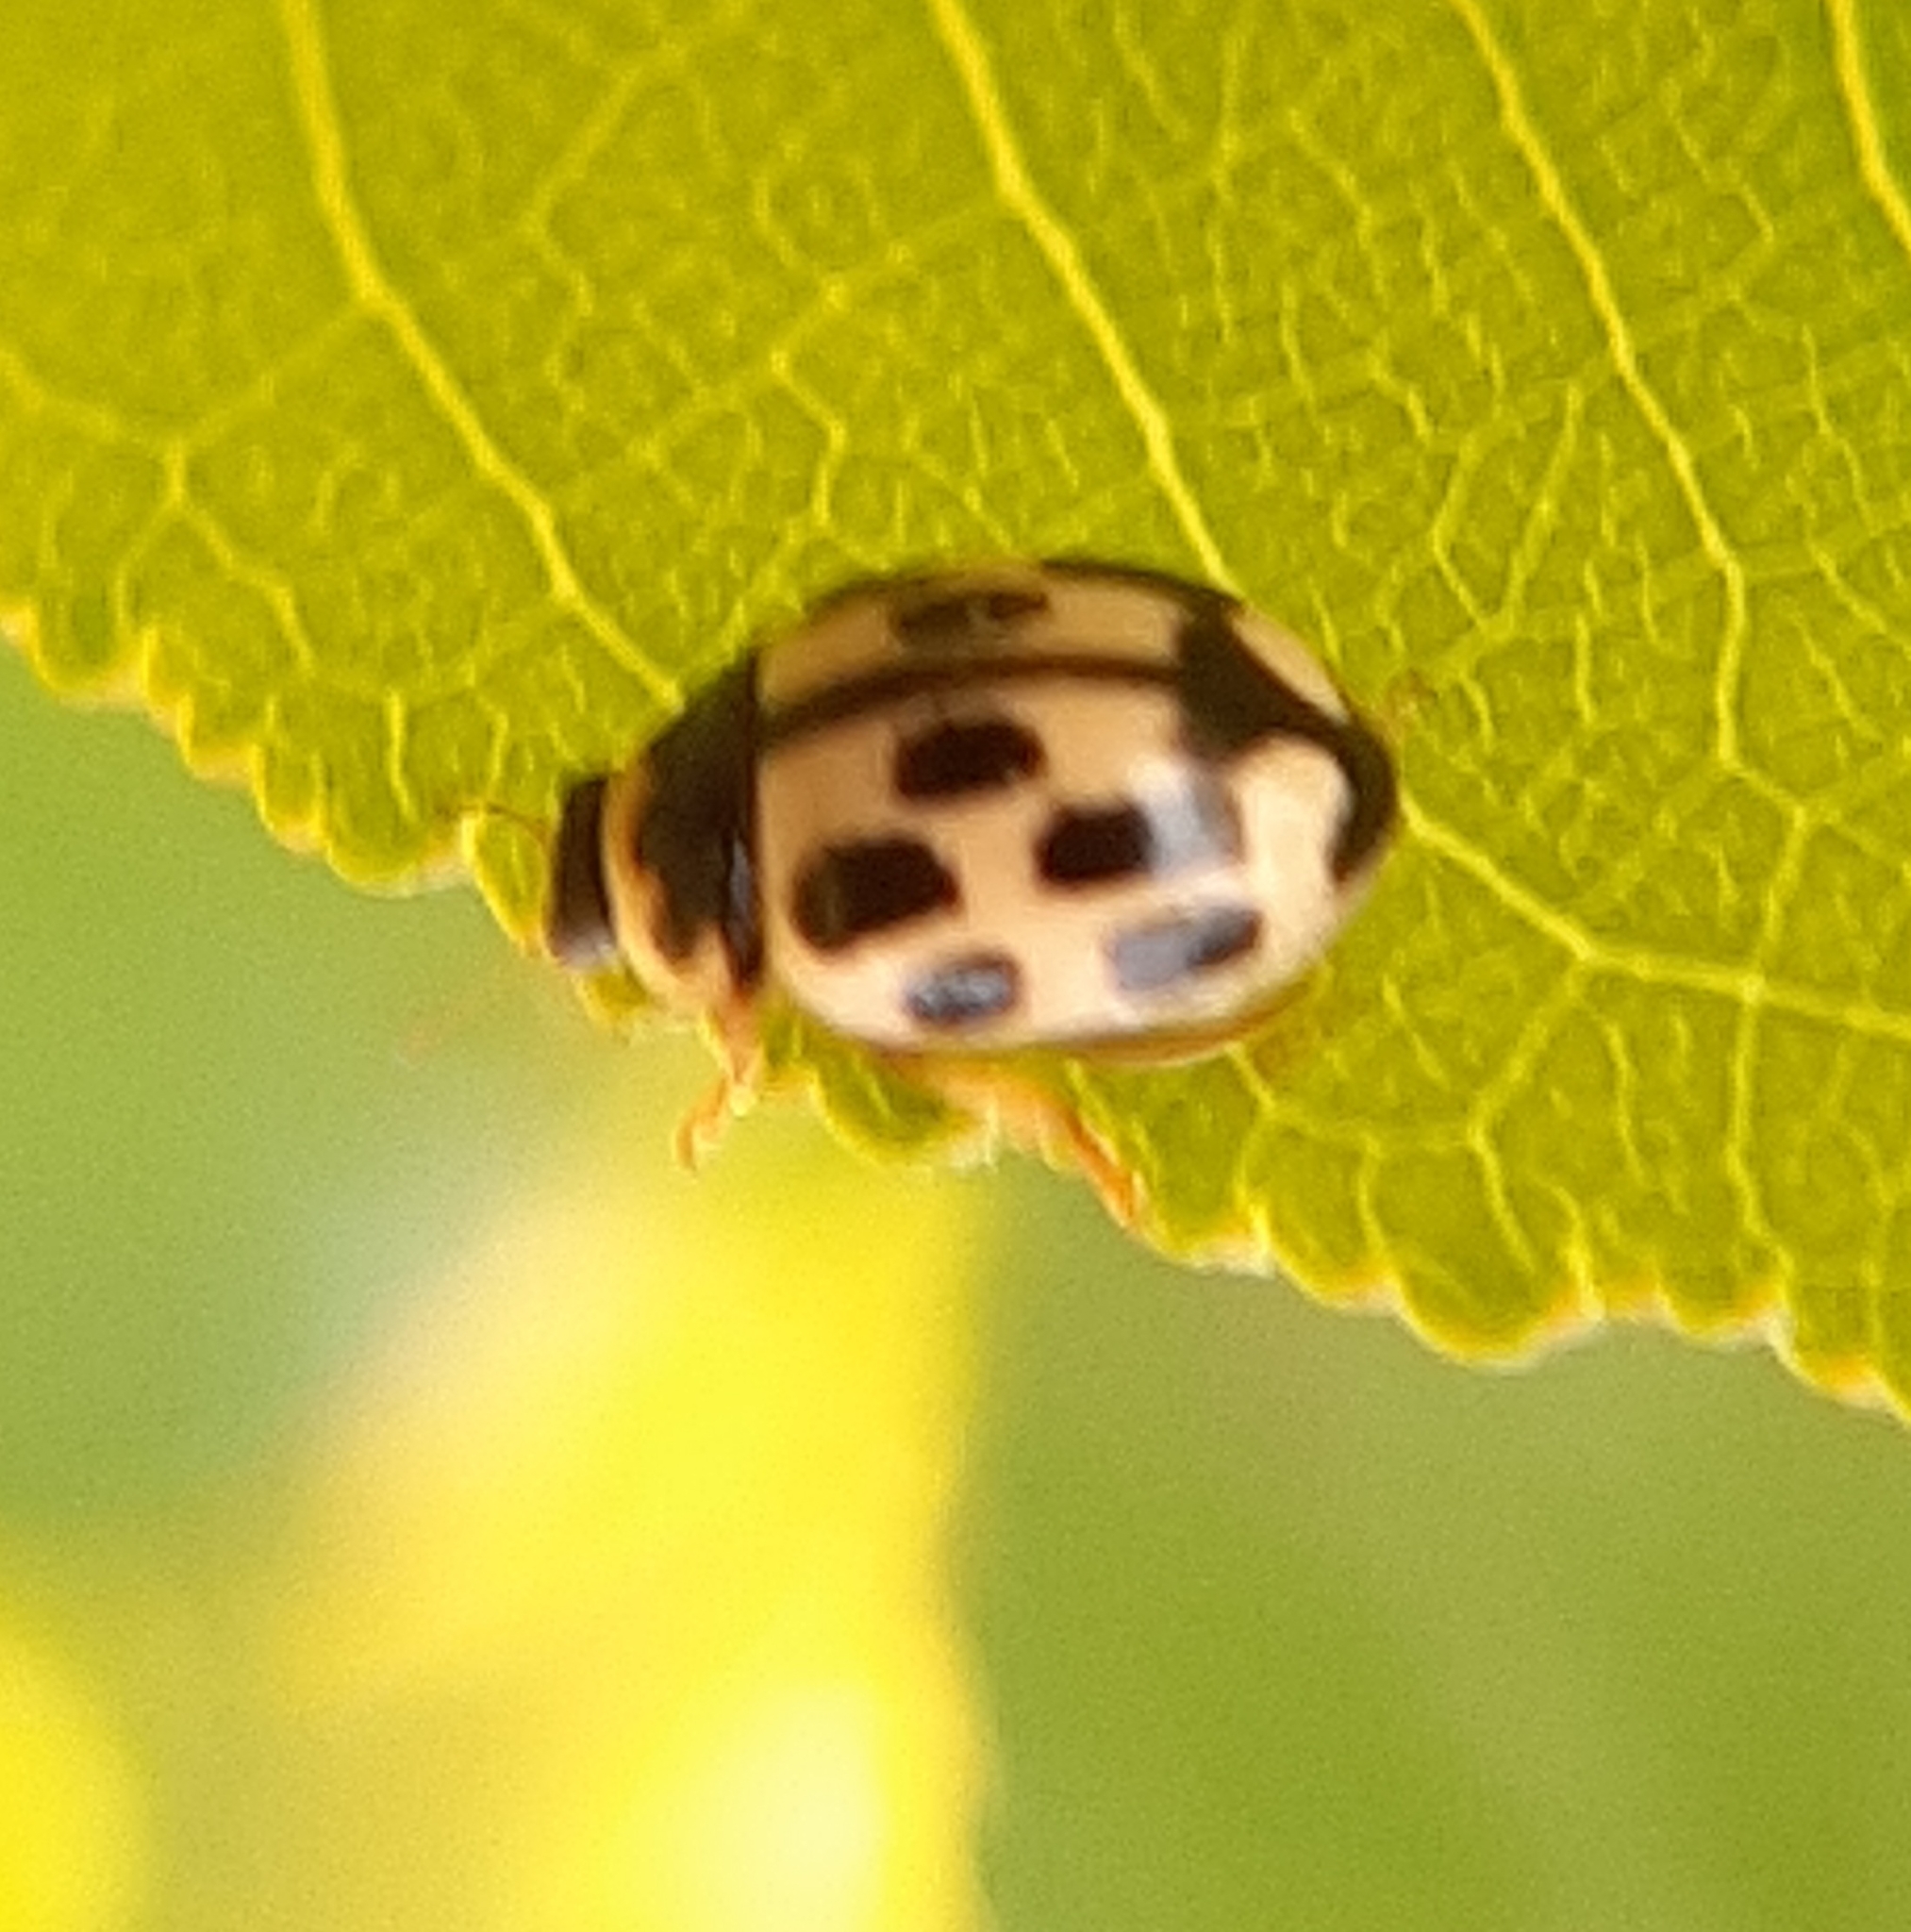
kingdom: Animalia
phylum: Arthropoda
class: Insecta
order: Coleoptera
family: Coccinellidae
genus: Propylaea
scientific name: Propylaea quatuordecimpunctata
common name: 14-spotted ladybird beetle
